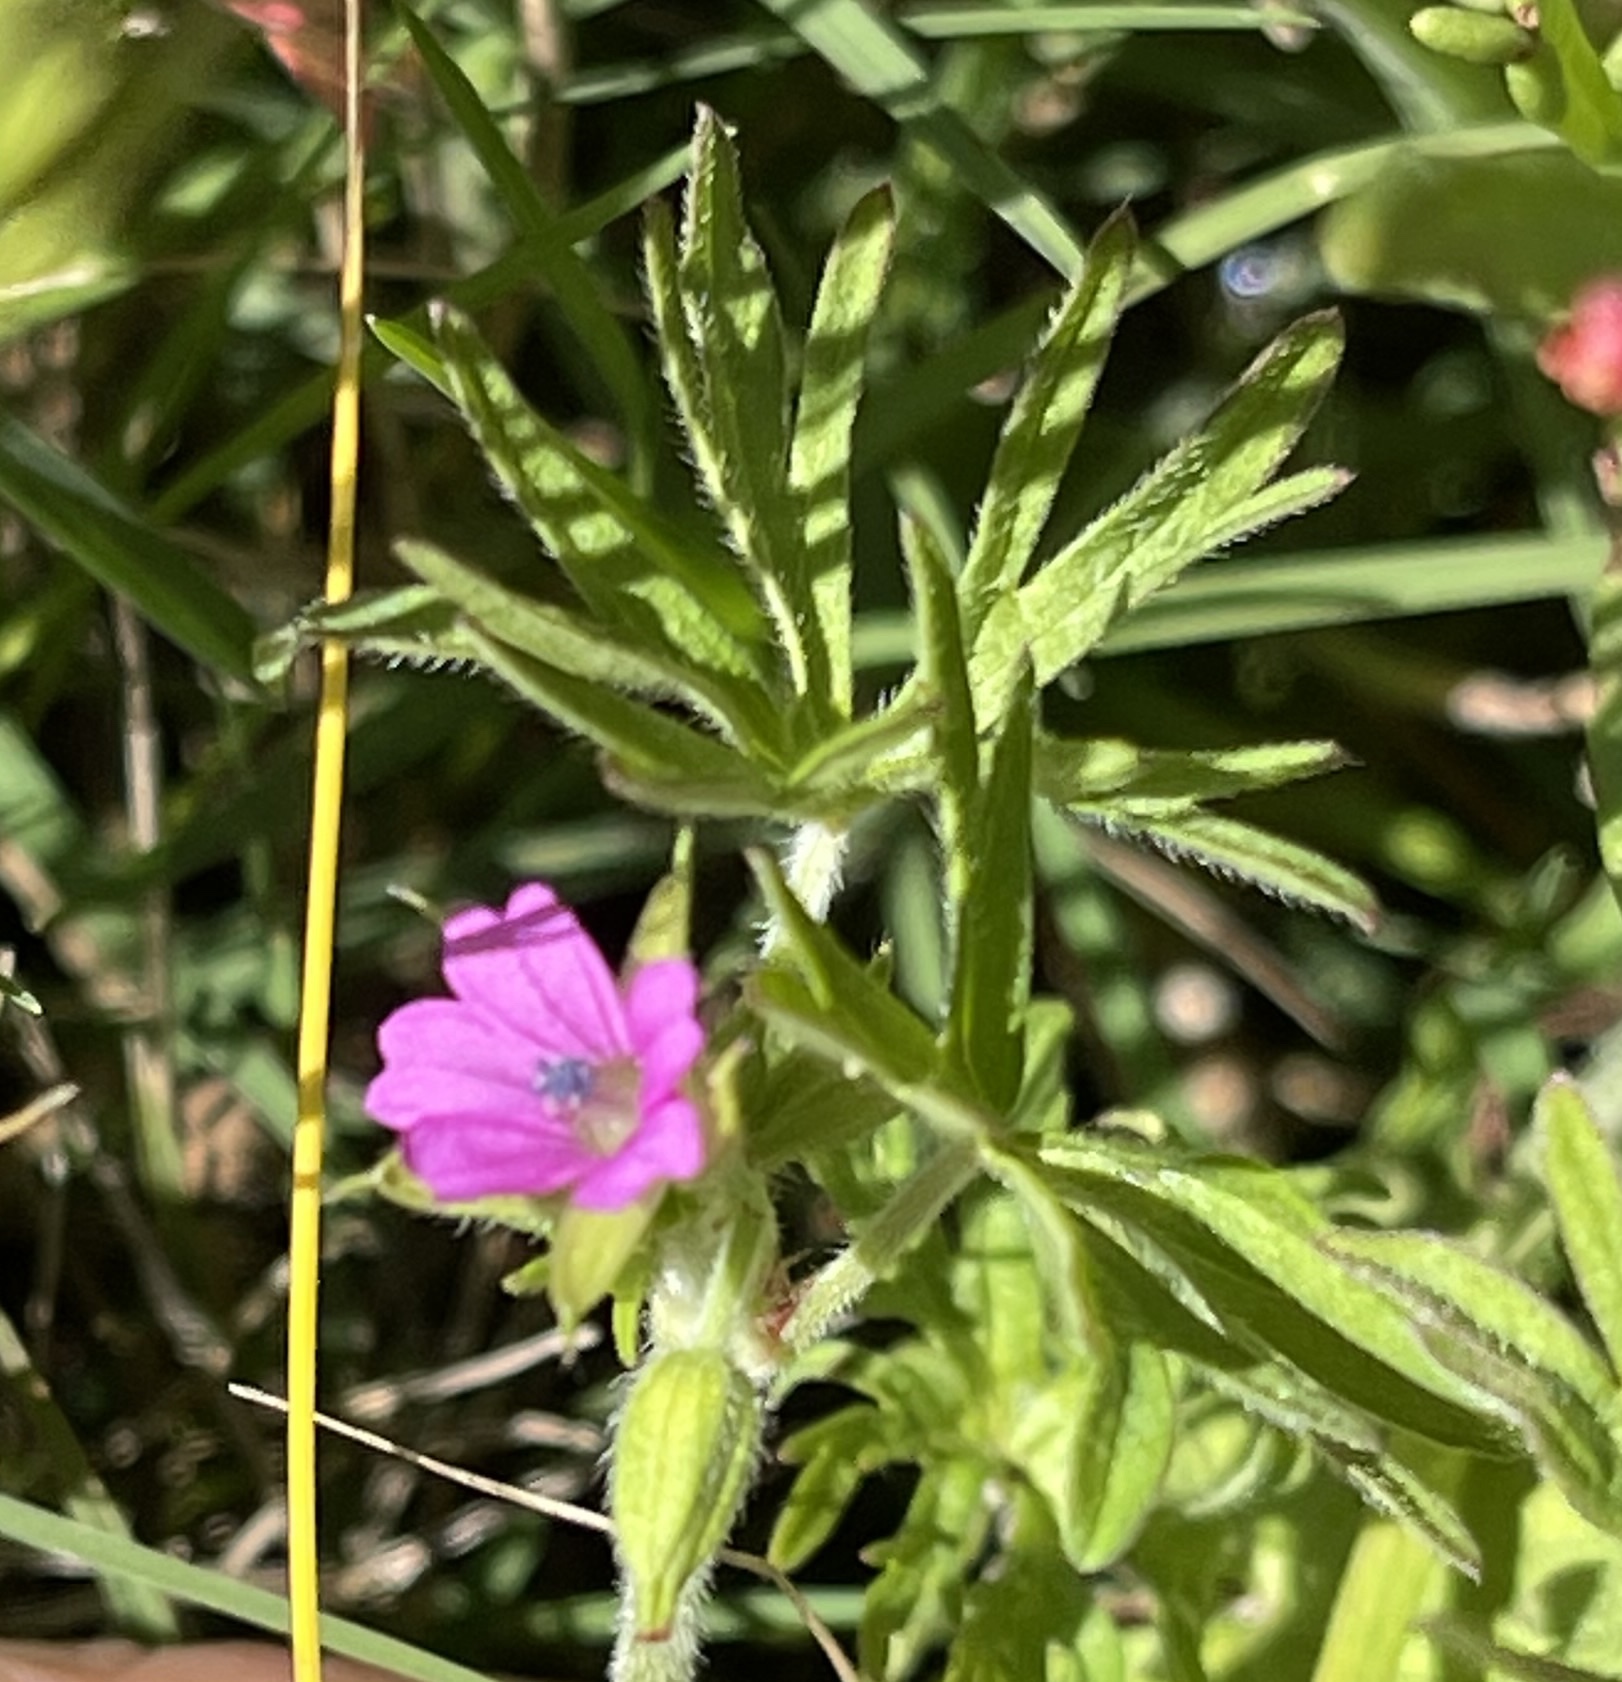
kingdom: Plantae
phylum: Tracheophyta
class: Magnoliopsida
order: Geraniales
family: Geraniaceae
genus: Geranium
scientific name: Geranium dissectum
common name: Cut-leaved crane's-bill
